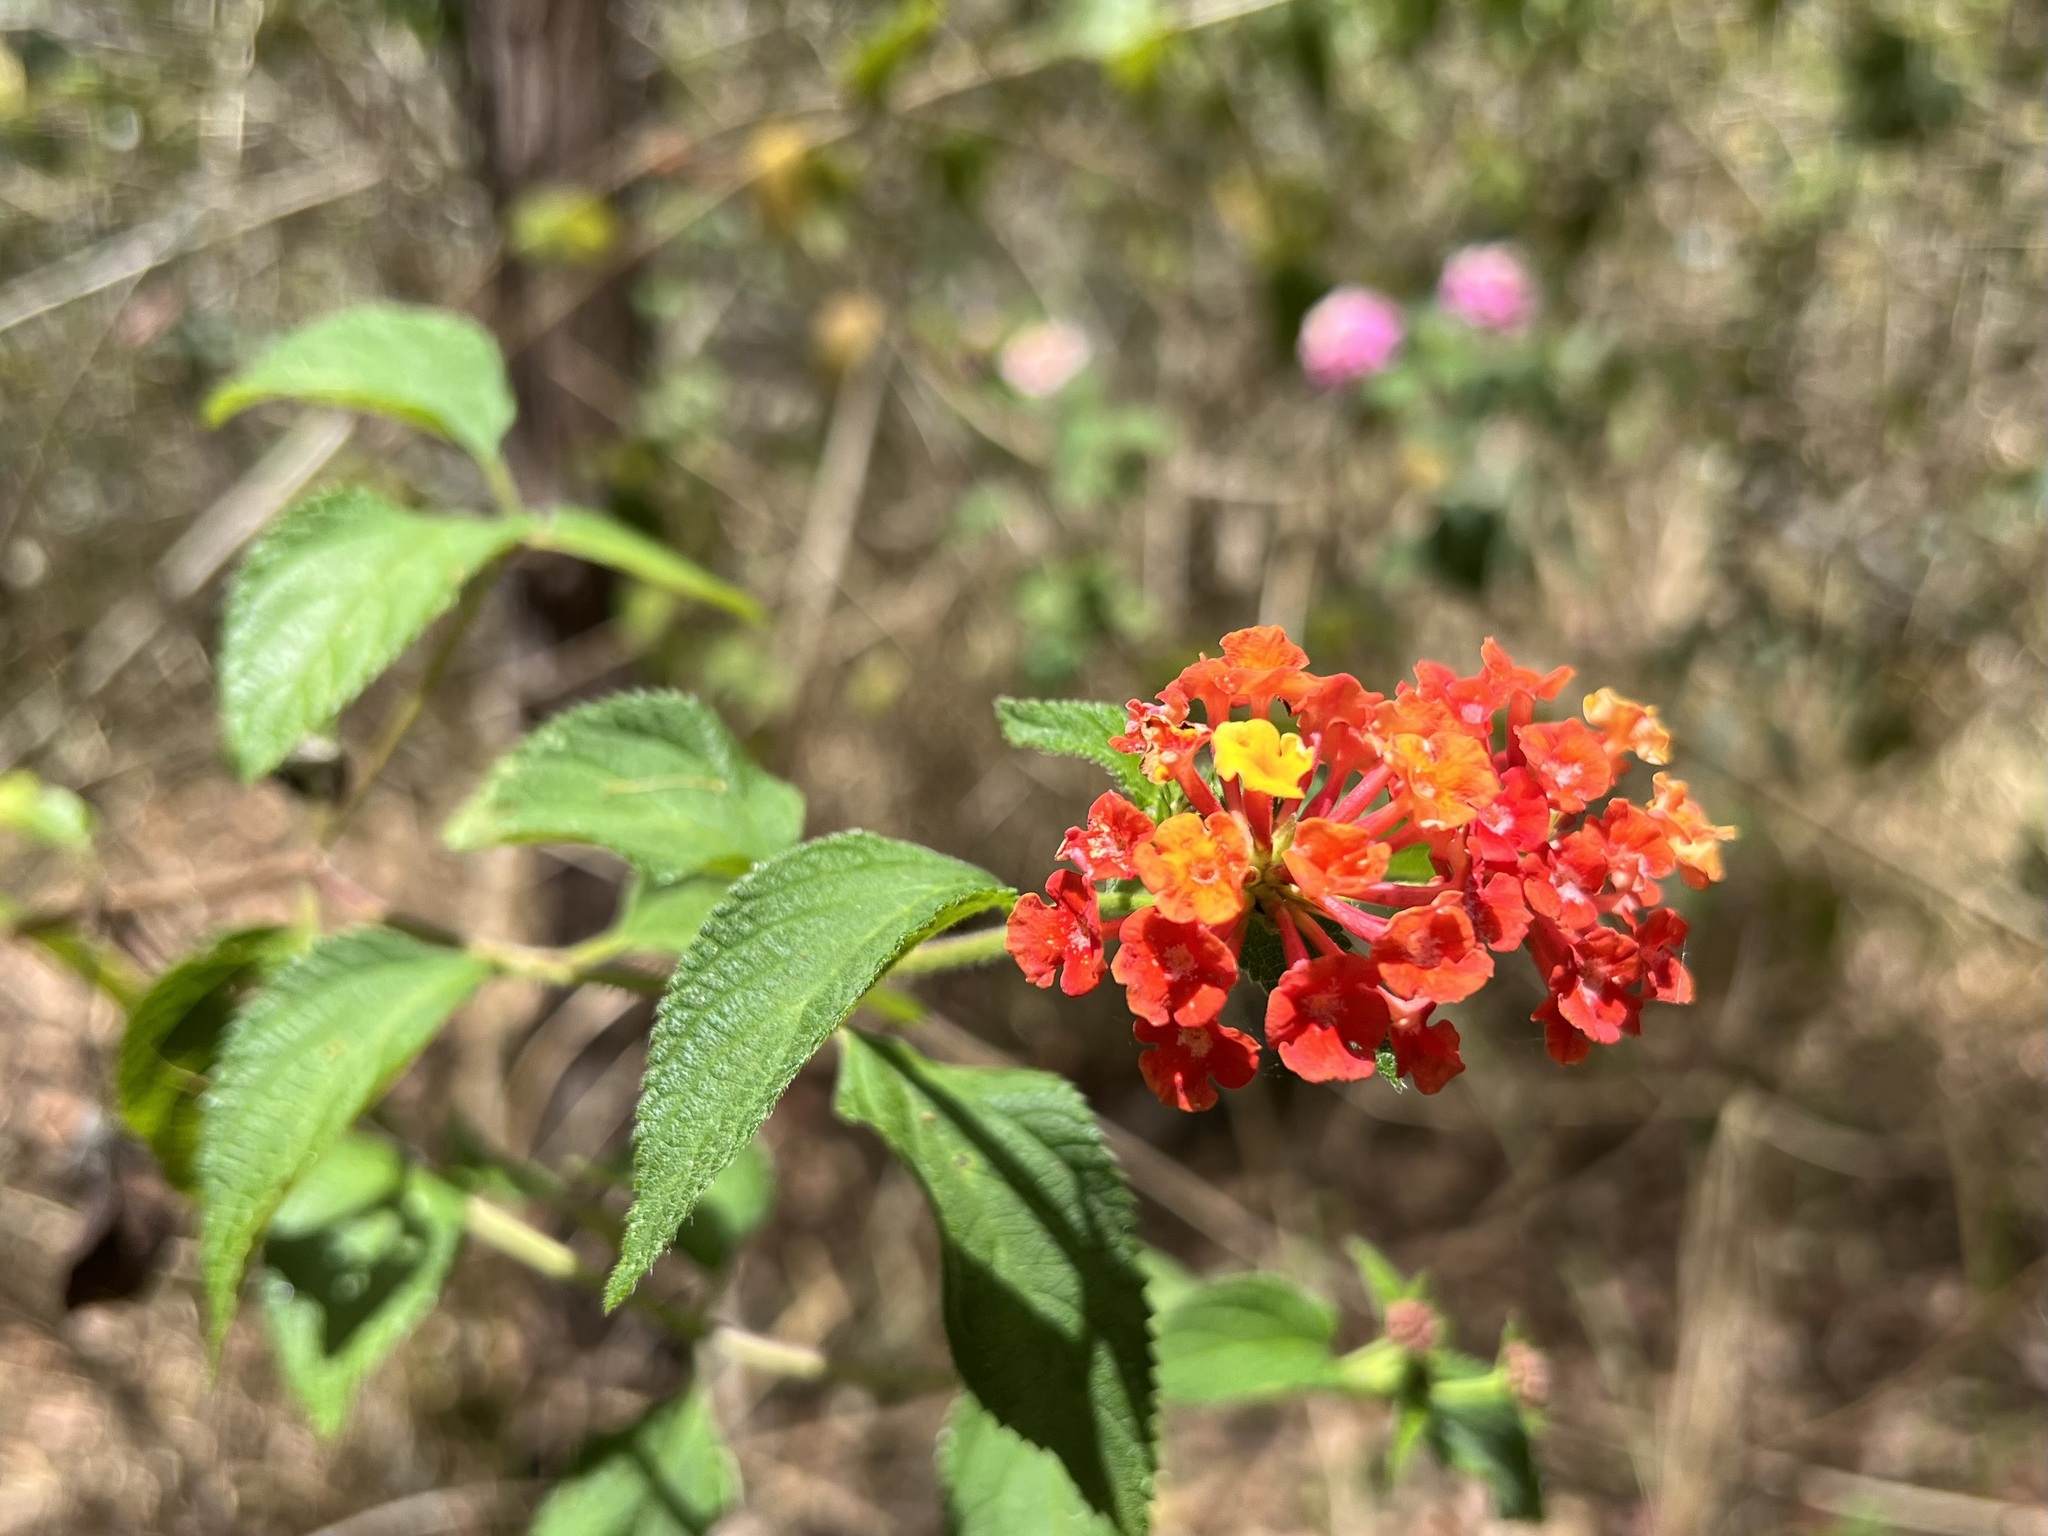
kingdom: Plantae
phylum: Tracheophyta
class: Magnoliopsida
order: Lamiales
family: Verbenaceae
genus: Lantana
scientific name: Lantana camara
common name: Lantana
